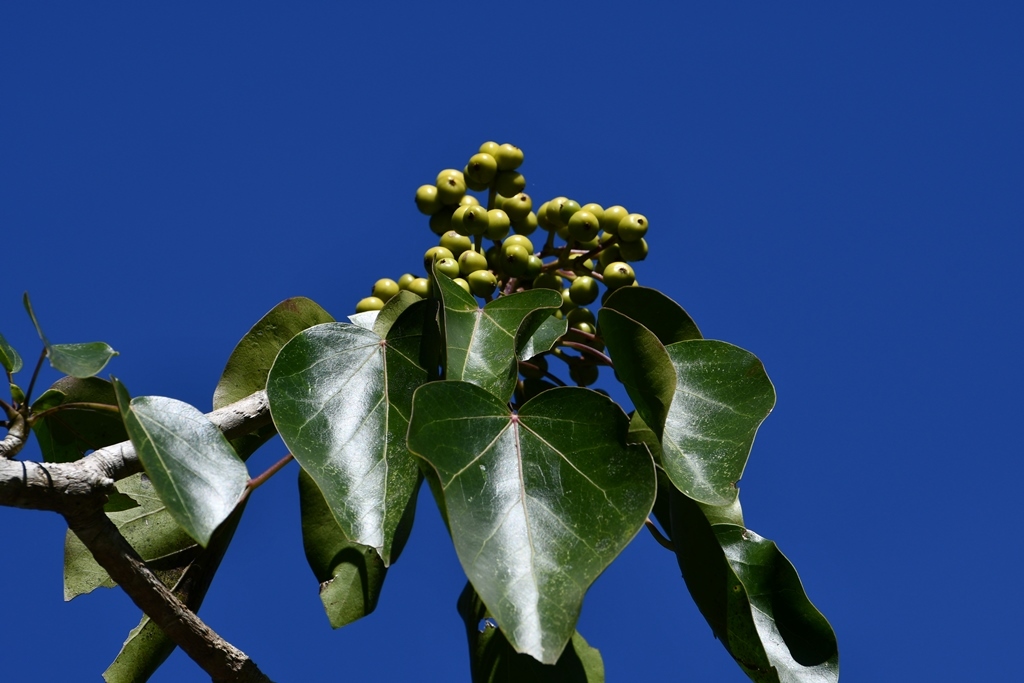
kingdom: Plantae
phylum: Tracheophyta
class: Magnoliopsida
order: Apiales
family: Araliaceae
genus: Oreopanax
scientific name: Oreopanax platyphyllus
